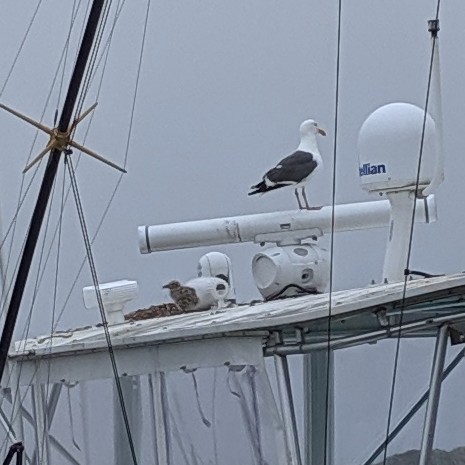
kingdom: Animalia
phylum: Chordata
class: Aves
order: Charadriiformes
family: Laridae
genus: Larus
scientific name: Larus occidentalis
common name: Western gull
